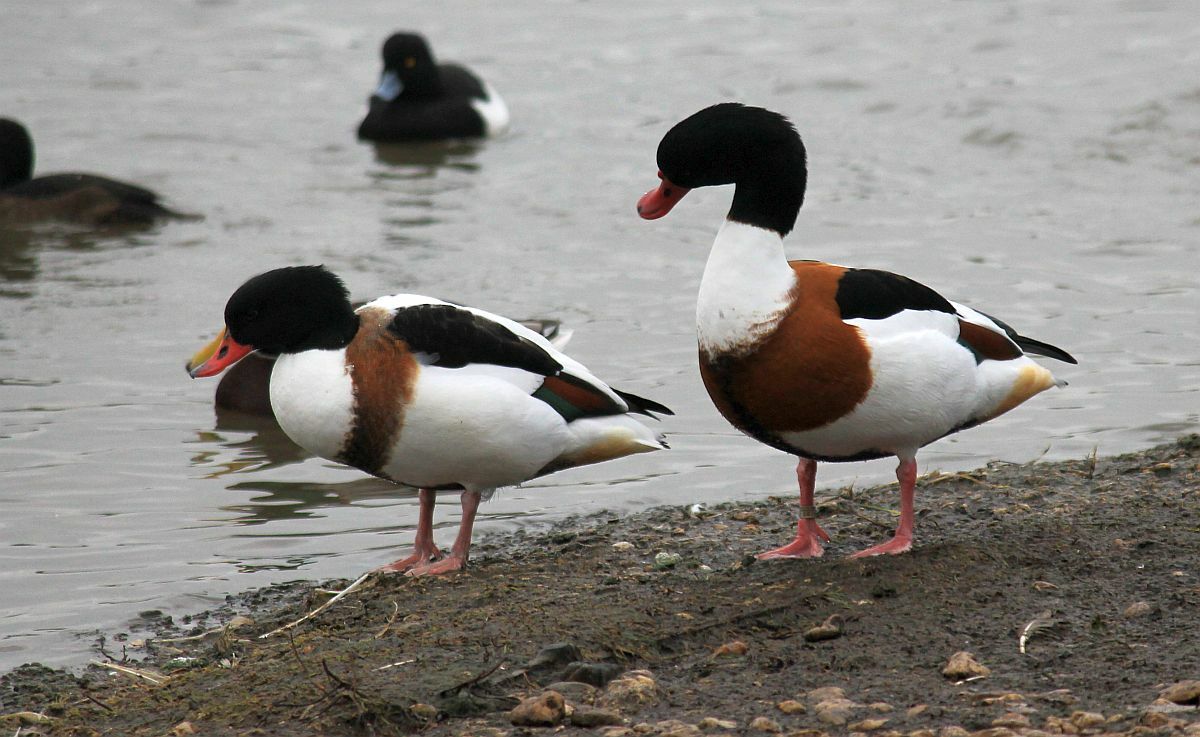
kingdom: Animalia
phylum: Chordata
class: Aves
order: Anseriformes
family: Anatidae
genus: Tadorna
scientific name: Tadorna tadorna
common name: Common shelduck
